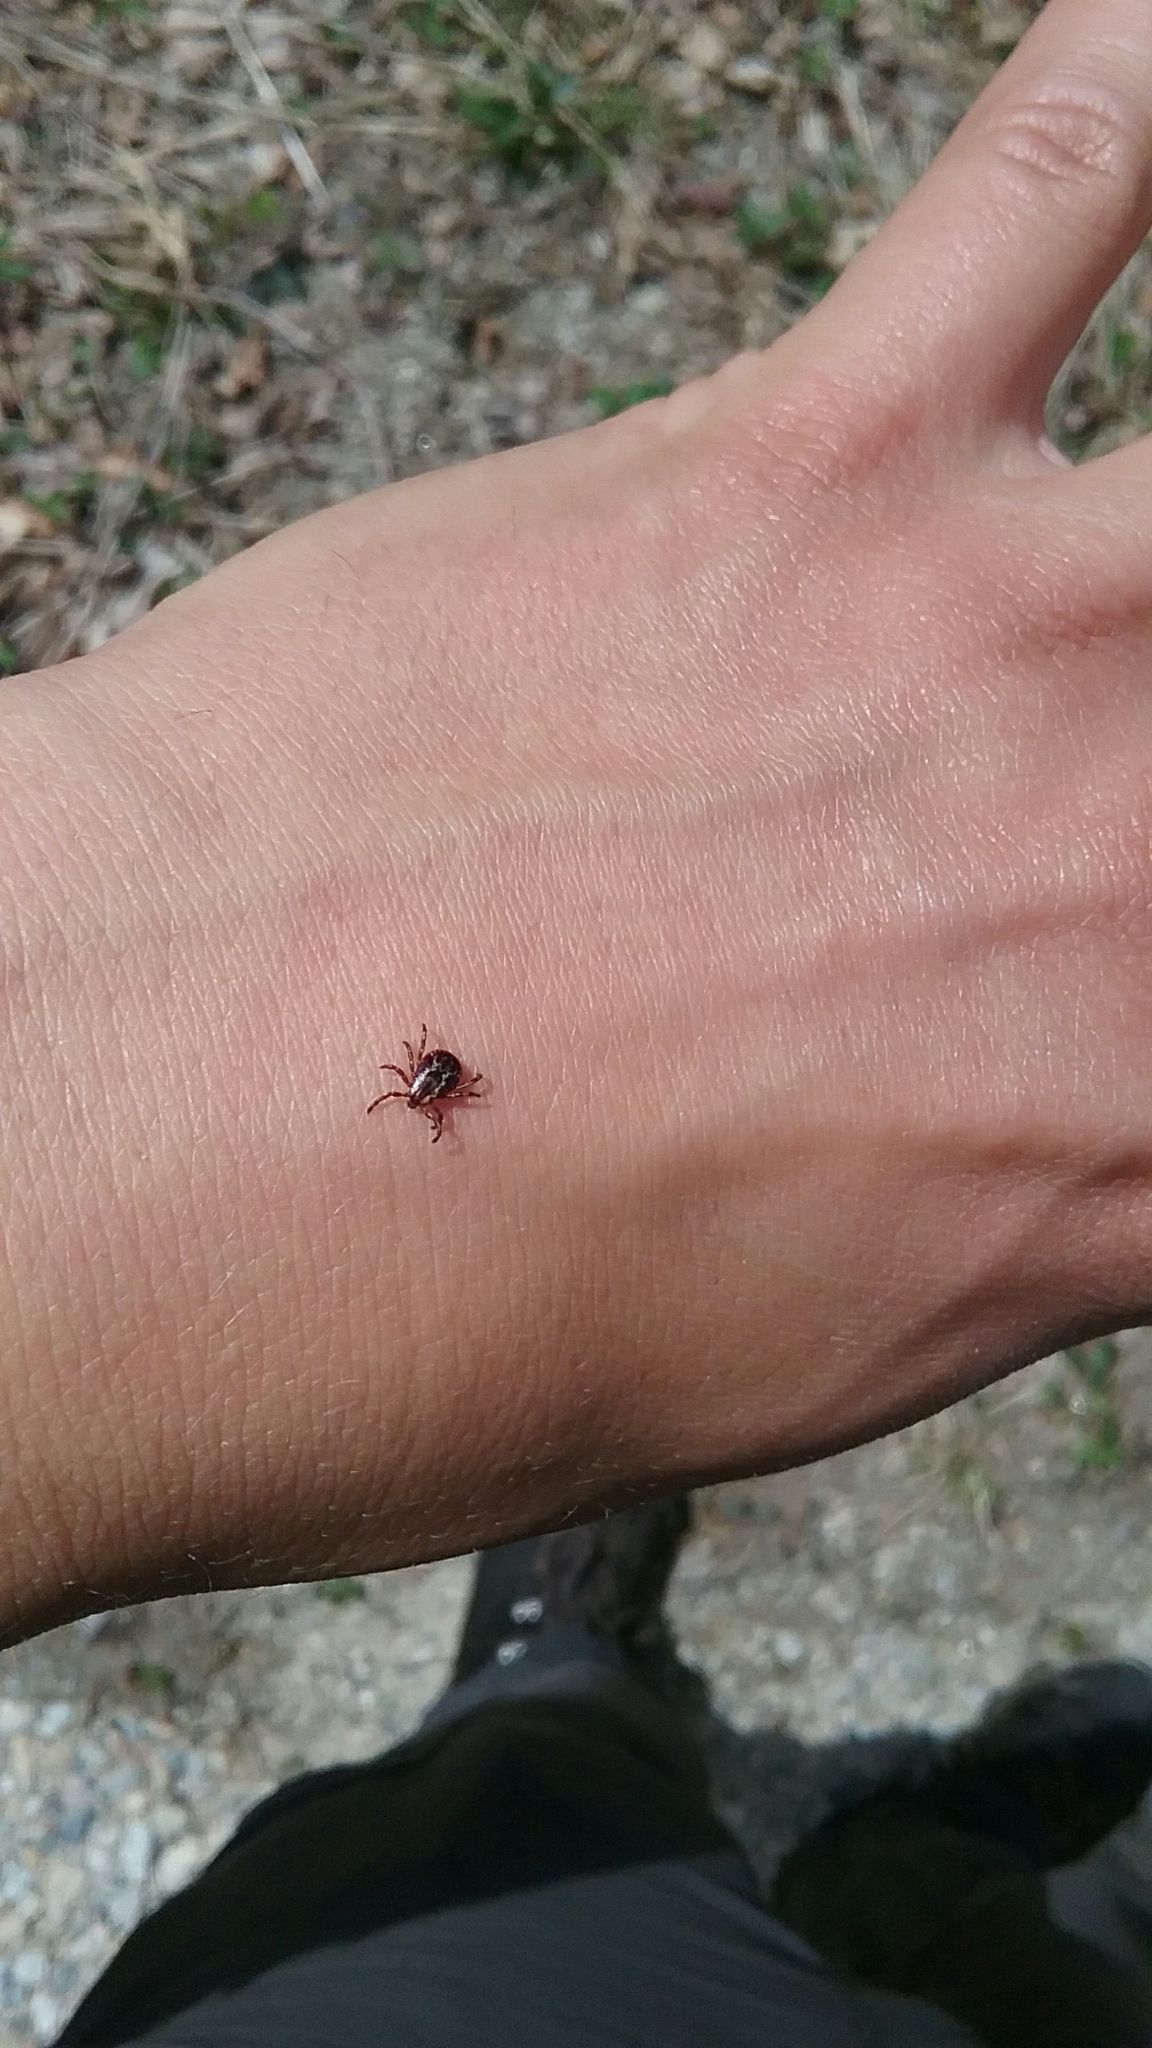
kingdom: Animalia
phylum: Arthropoda
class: Arachnida
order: Ixodida
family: Ixodidae
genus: Dermacentor
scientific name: Dermacentor variabilis
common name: American dog tick
